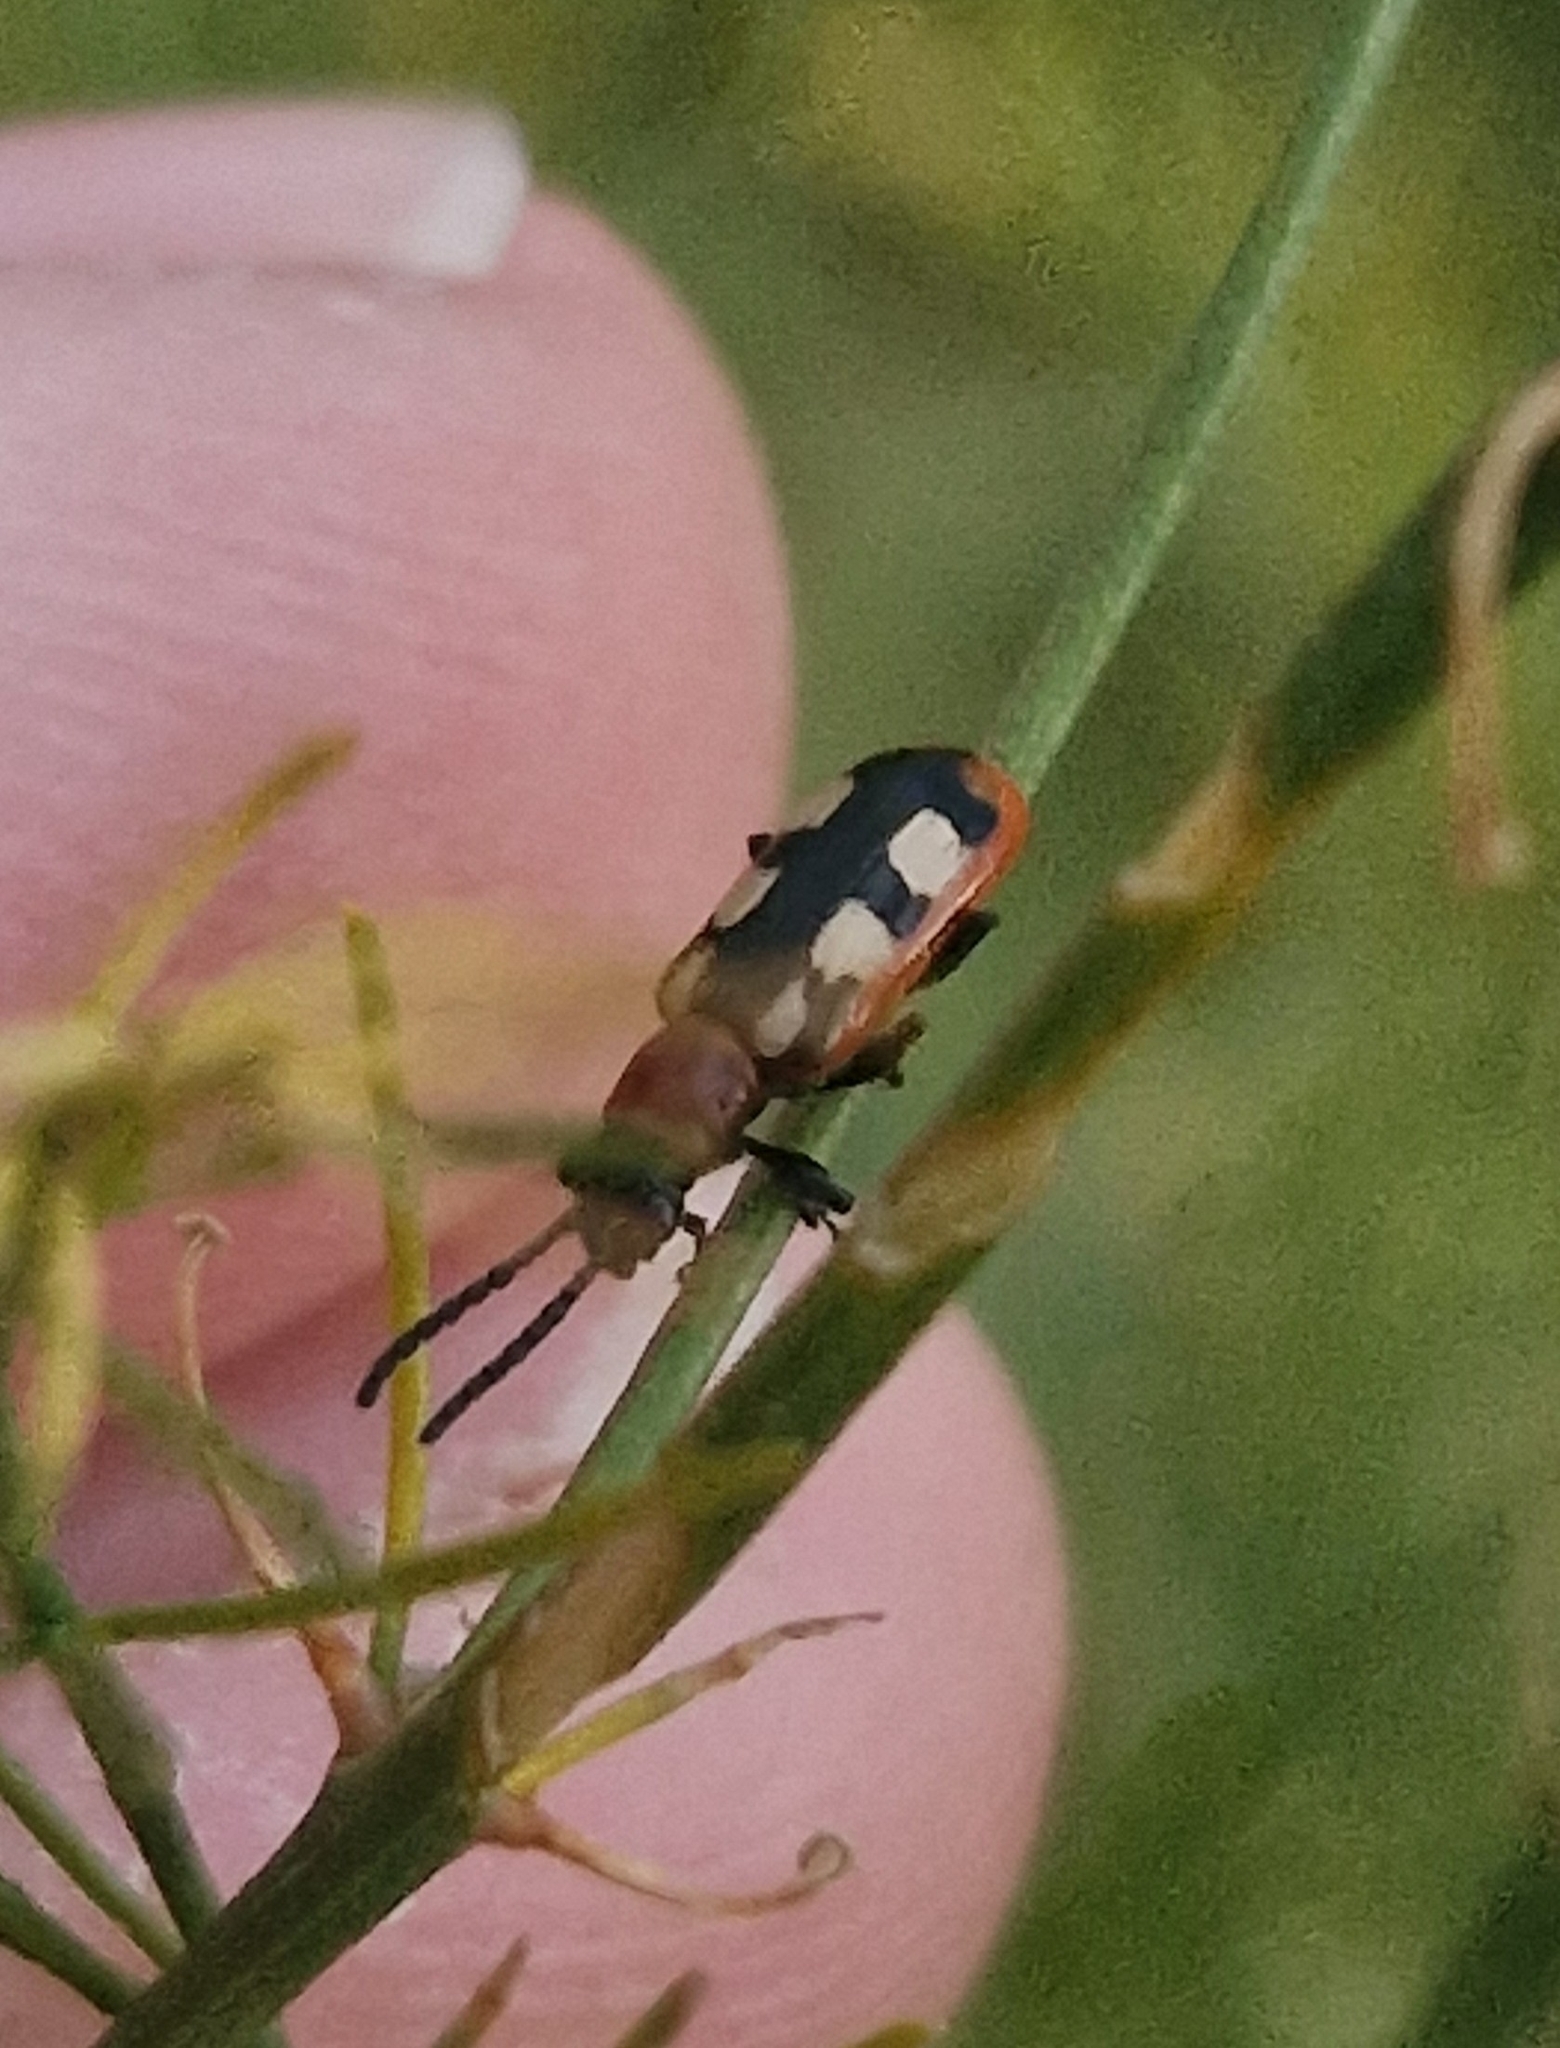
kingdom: Animalia
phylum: Arthropoda
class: Insecta
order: Coleoptera
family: Chrysomelidae
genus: Crioceris
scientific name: Crioceris asparagi
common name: Asparagus beetle
